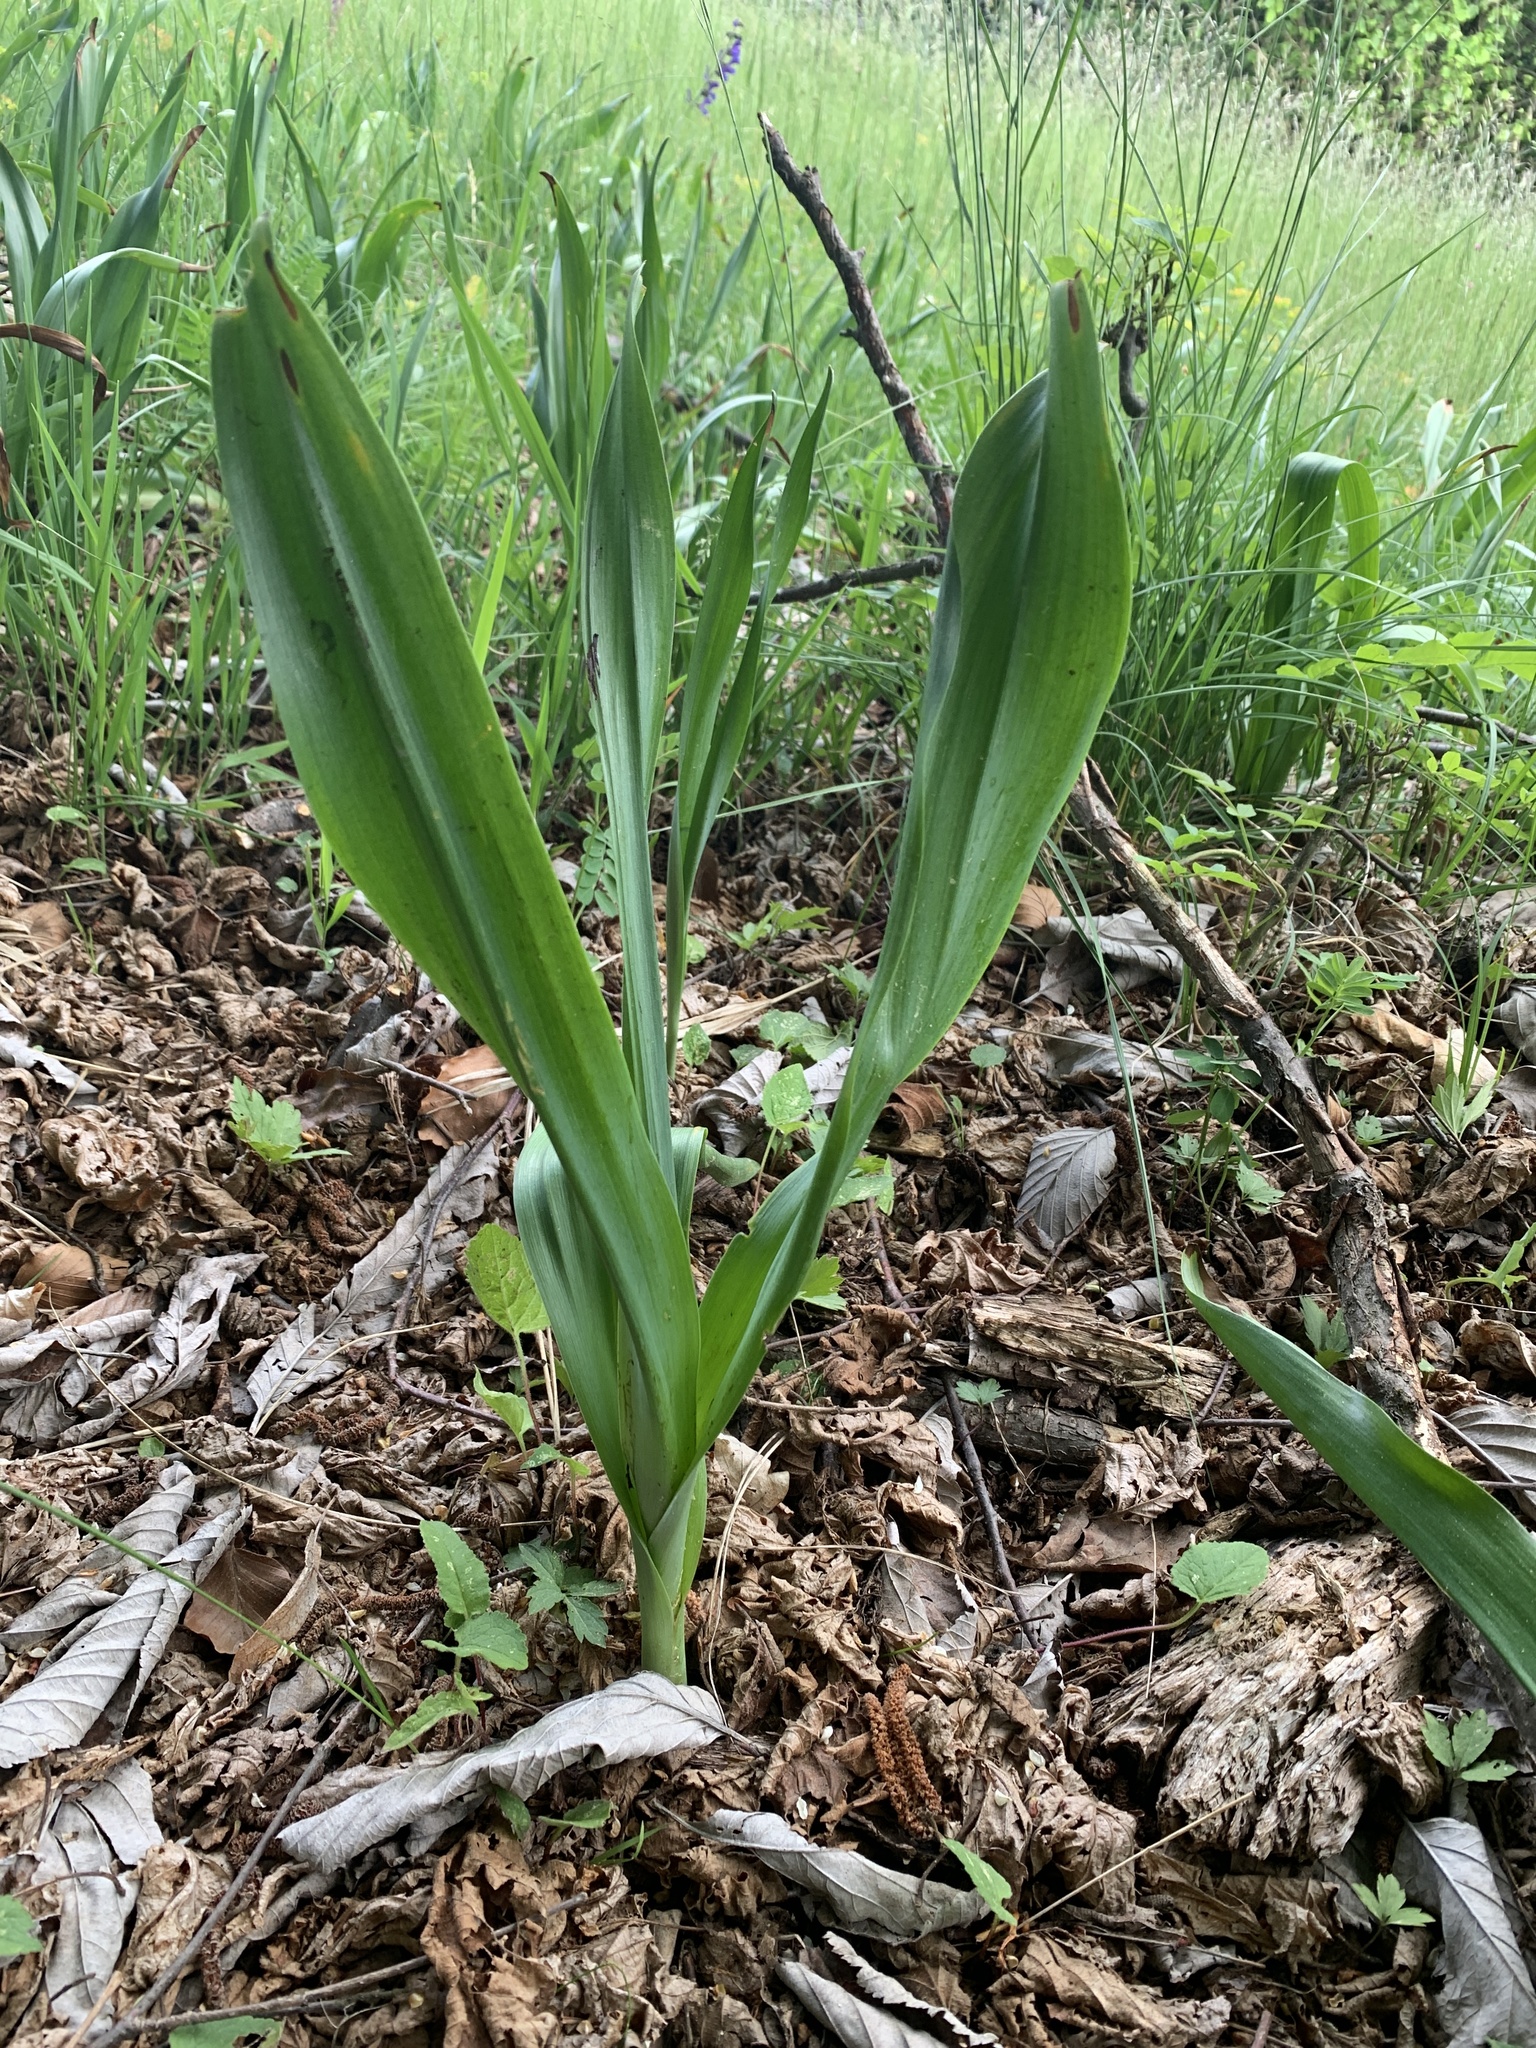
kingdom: Plantae
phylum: Tracheophyta
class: Liliopsida
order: Liliales
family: Colchicaceae
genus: Colchicum
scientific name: Colchicum autumnale
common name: Autumn crocus
